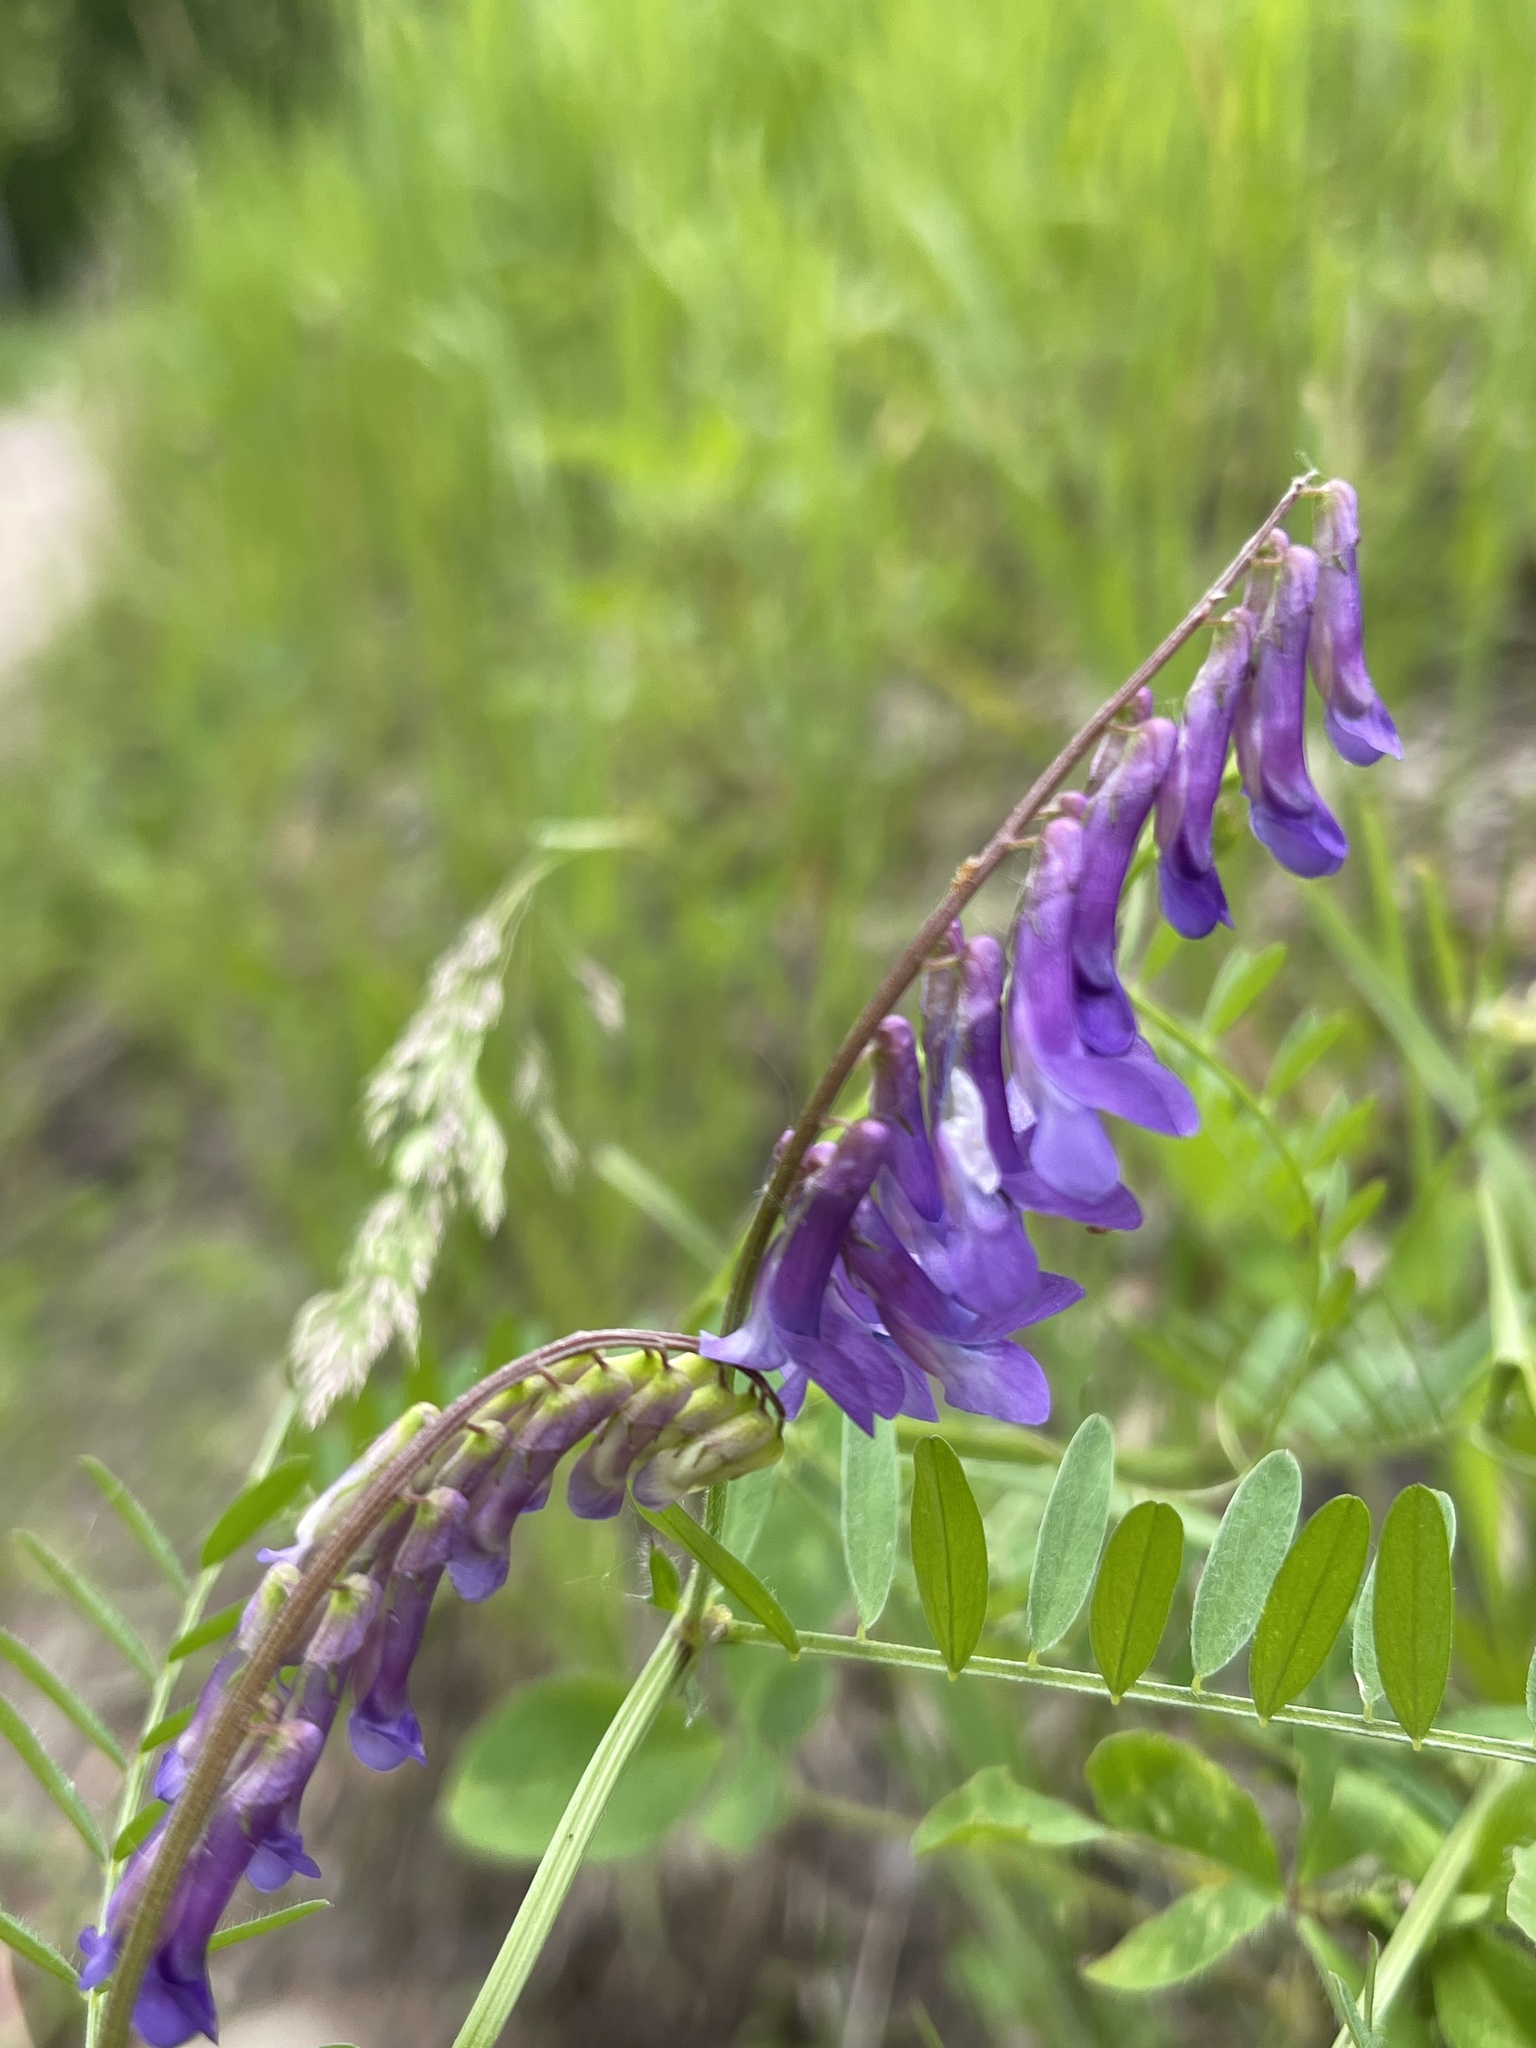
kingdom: Plantae
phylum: Tracheophyta
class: Magnoliopsida
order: Fabales
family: Fabaceae
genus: Vicia
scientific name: Vicia villosa
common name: Fodder vetch
